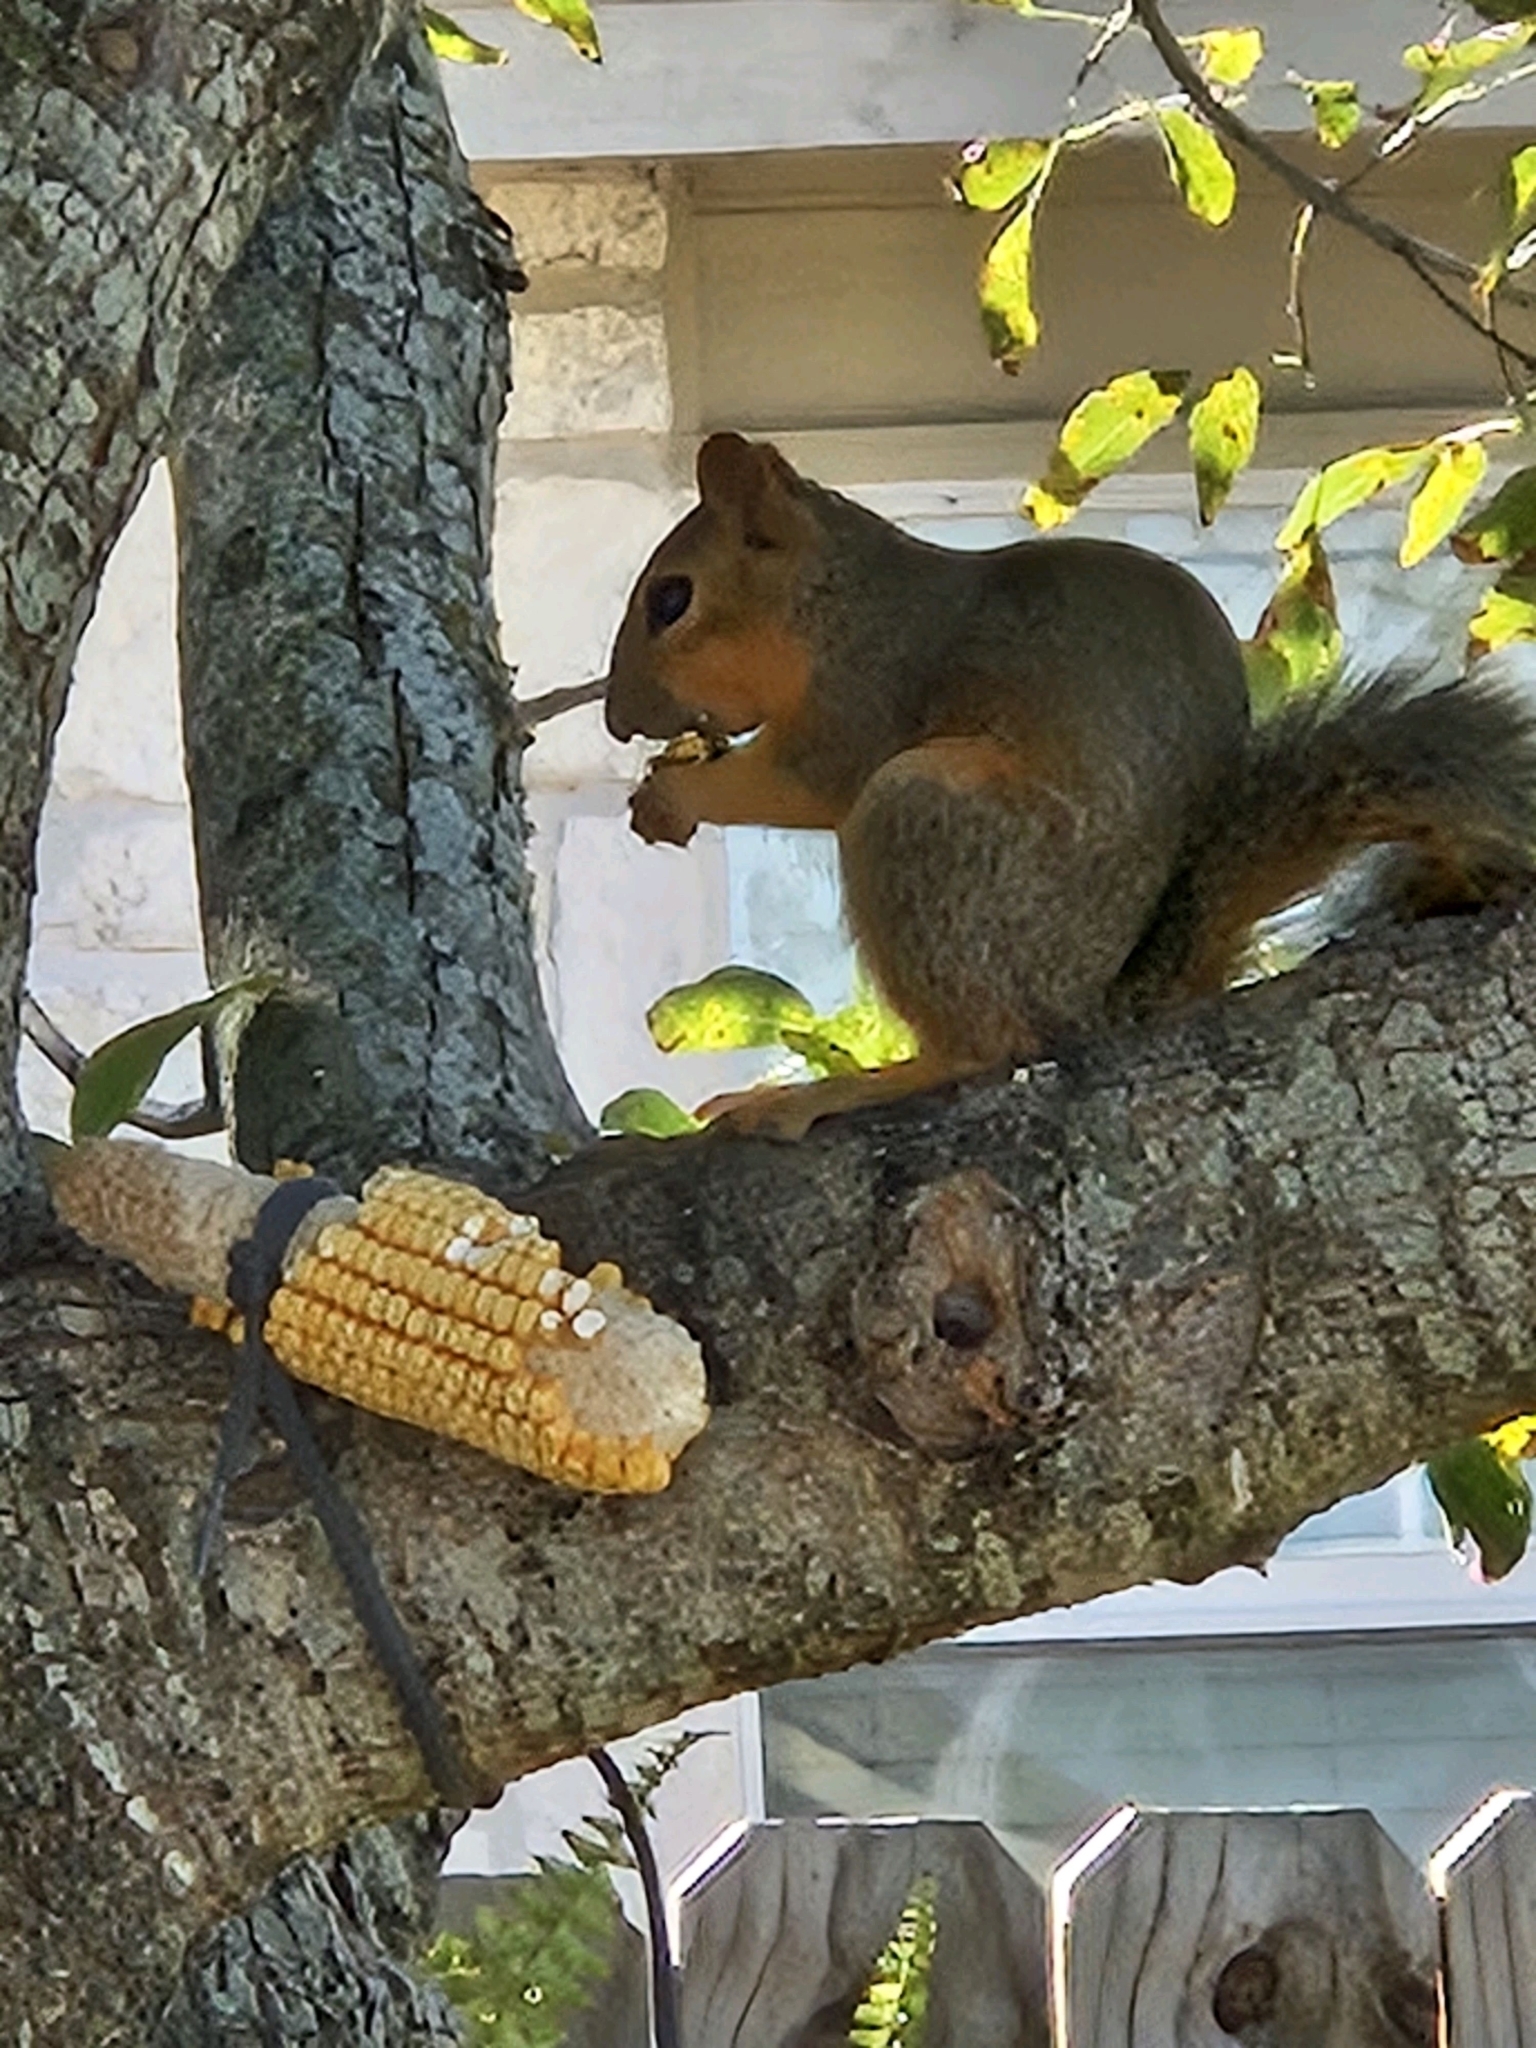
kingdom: Animalia
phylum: Chordata
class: Mammalia
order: Rodentia
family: Sciuridae
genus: Sciurus
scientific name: Sciurus niger
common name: Fox squirrel
